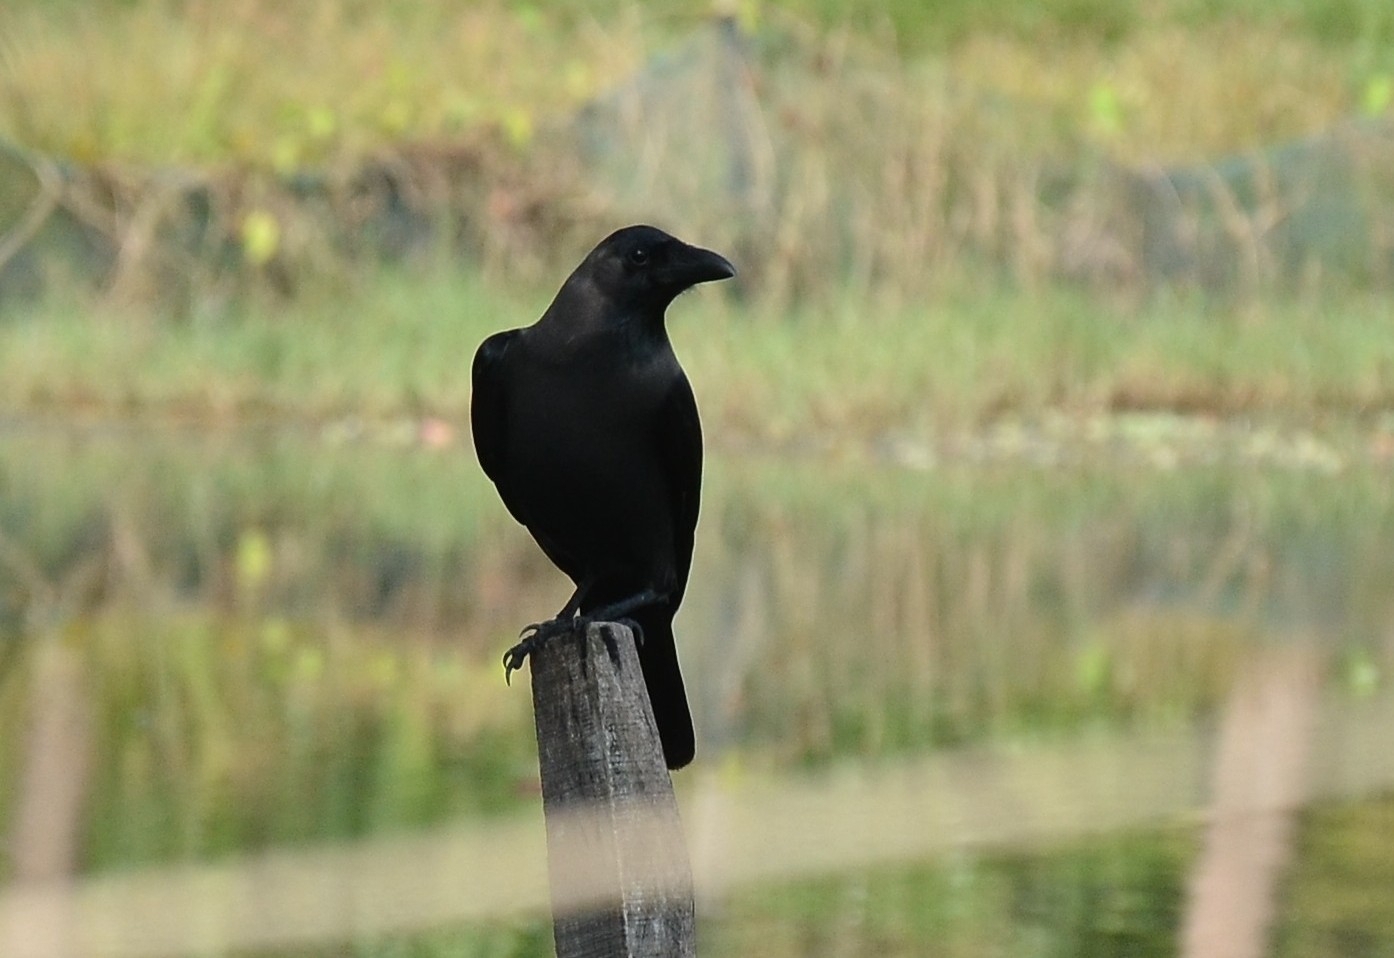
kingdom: Animalia
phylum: Chordata
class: Aves
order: Passeriformes
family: Corvidae
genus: Corvus
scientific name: Corvus splendens
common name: House crow
